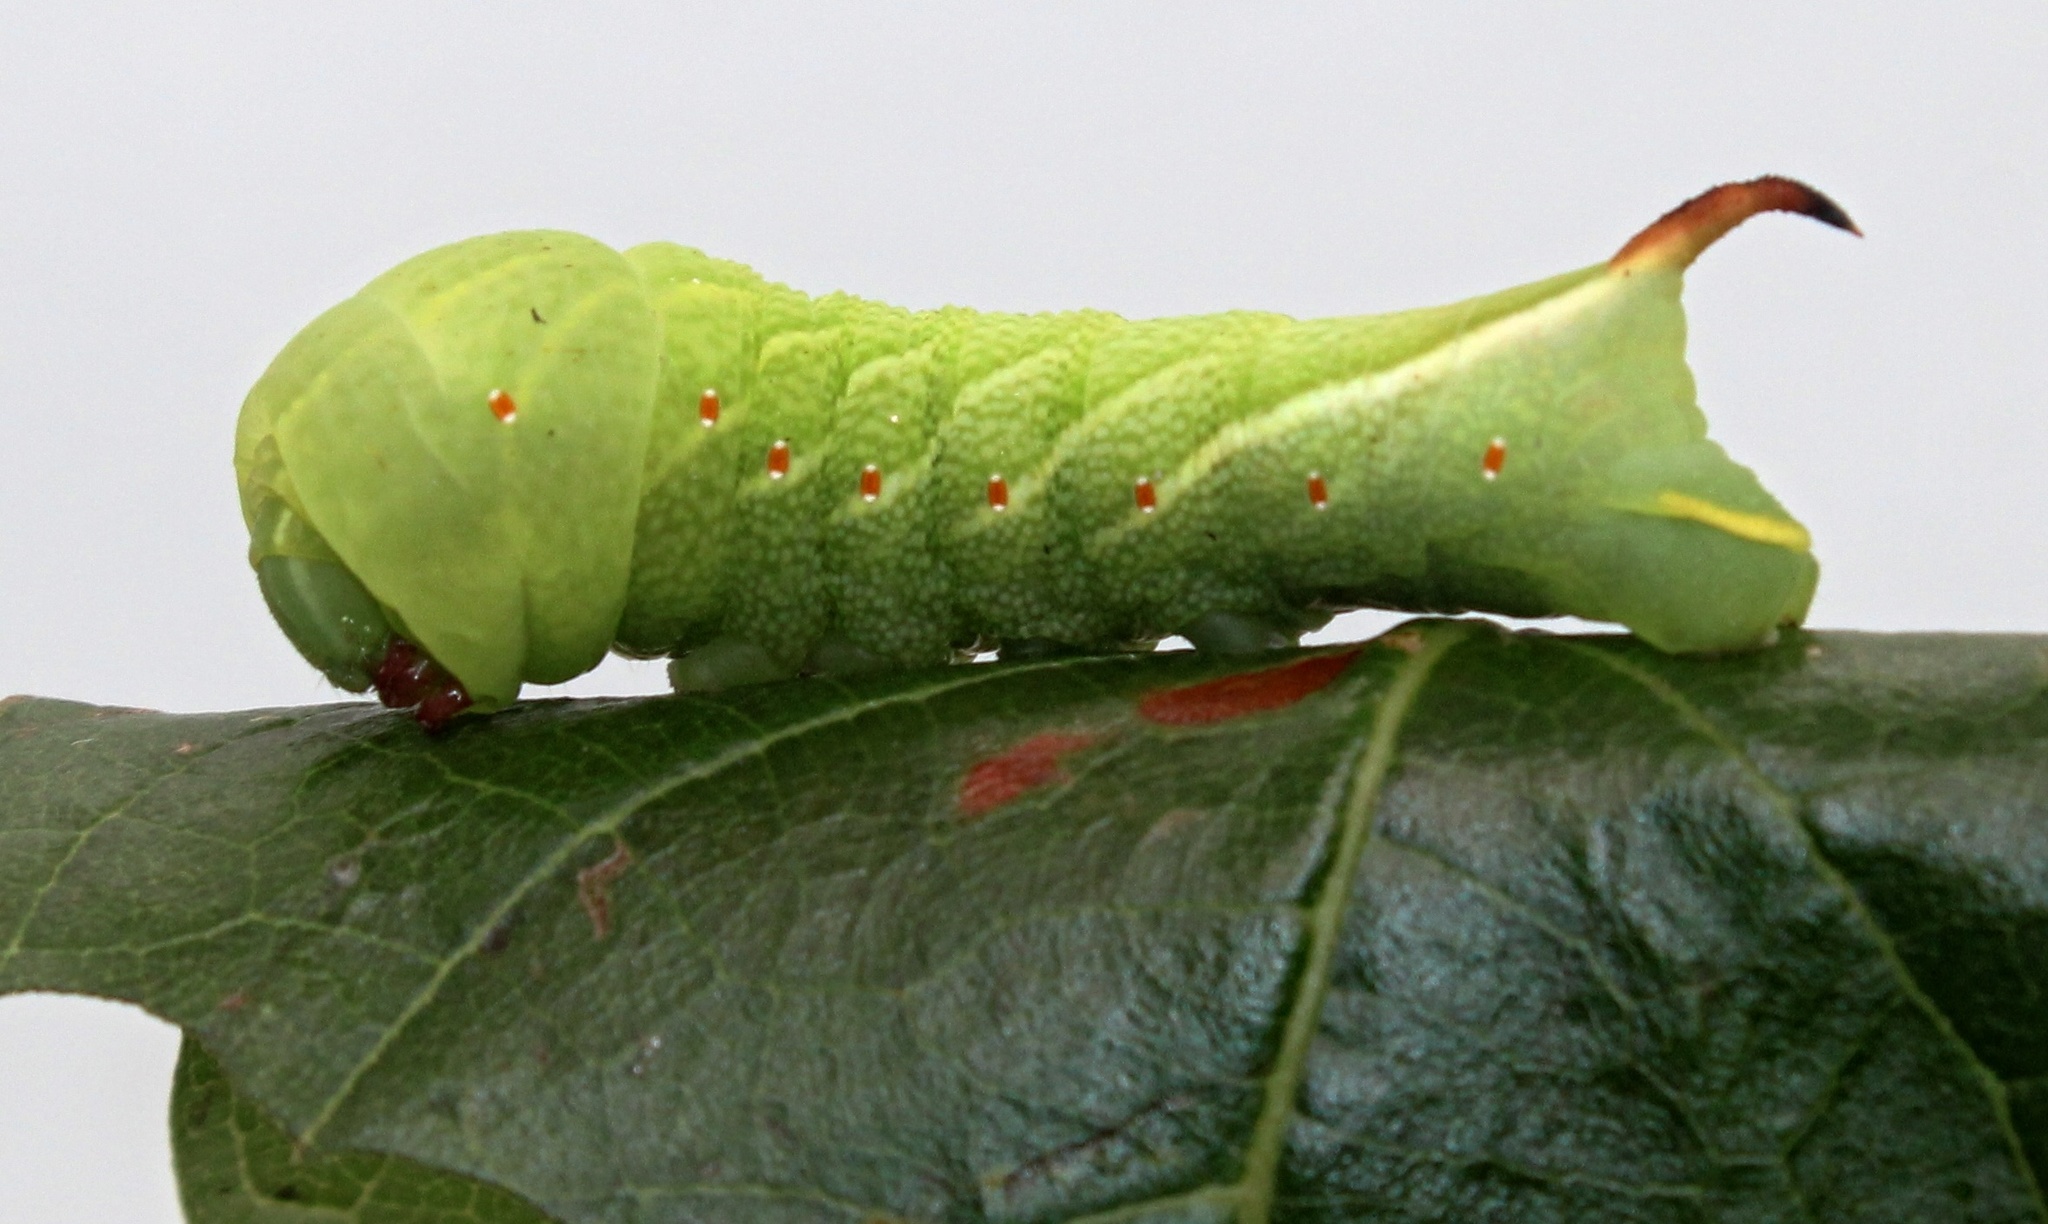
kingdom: Animalia
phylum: Arthropoda
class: Insecta
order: Lepidoptera
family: Sphingidae
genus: Darapsa
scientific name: Darapsa versicolor
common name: Hydrangea sphinx
